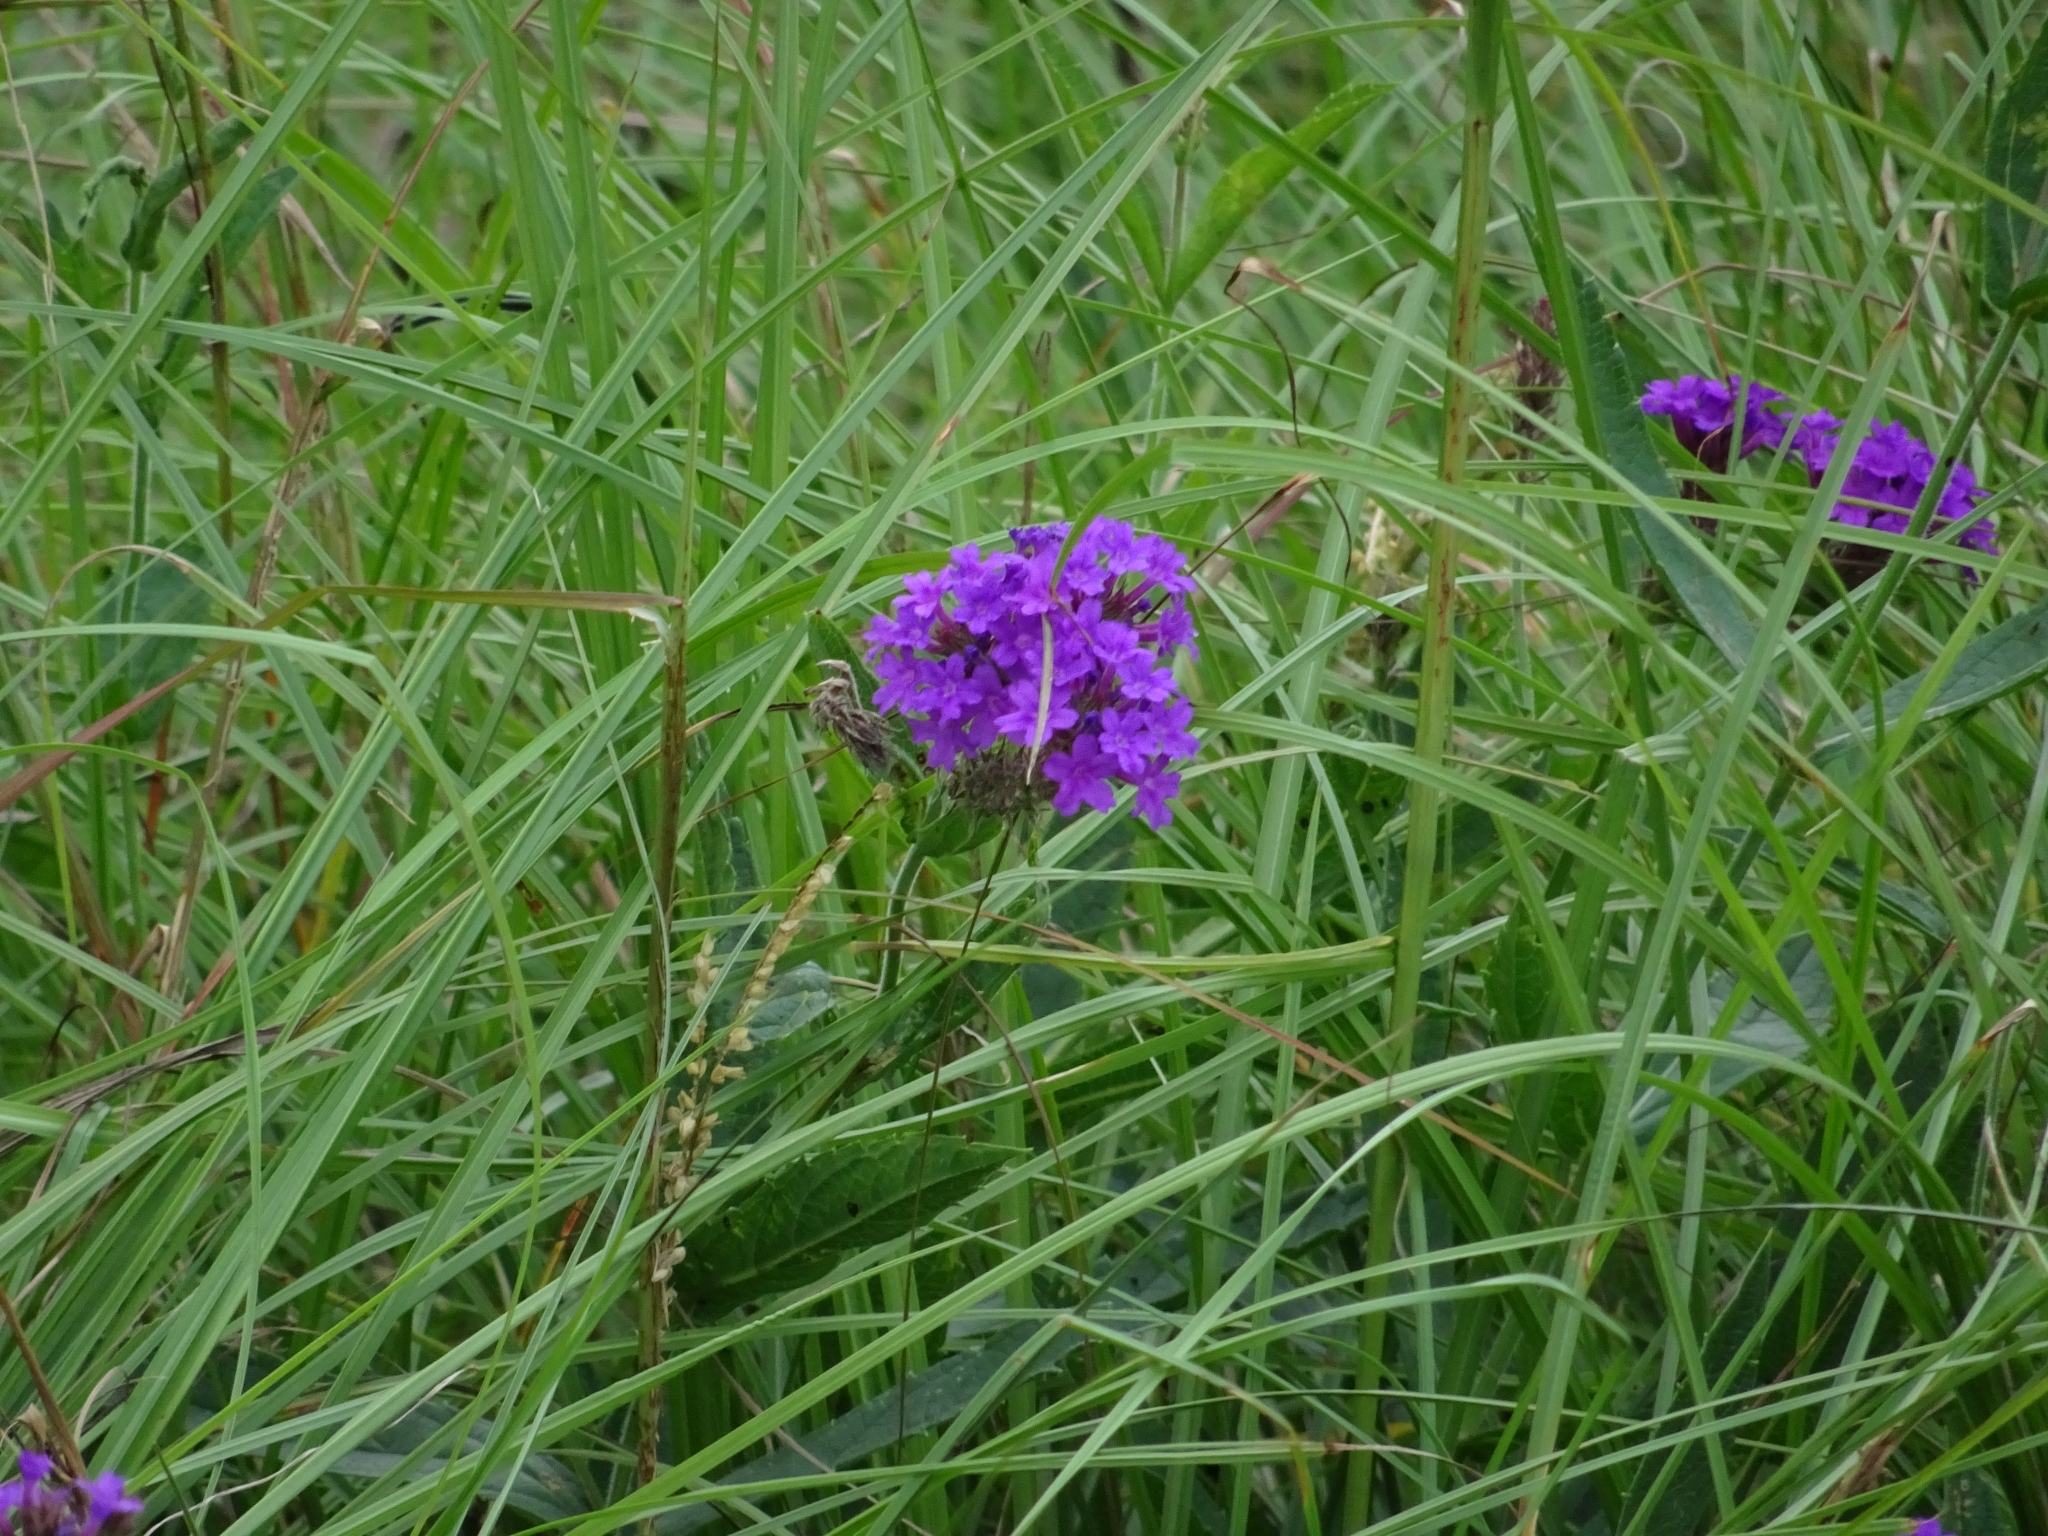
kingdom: Plantae
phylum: Tracheophyta
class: Magnoliopsida
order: Lamiales
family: Verbenaceae
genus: Verbena
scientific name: Verbena rigida
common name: Slender vervain
